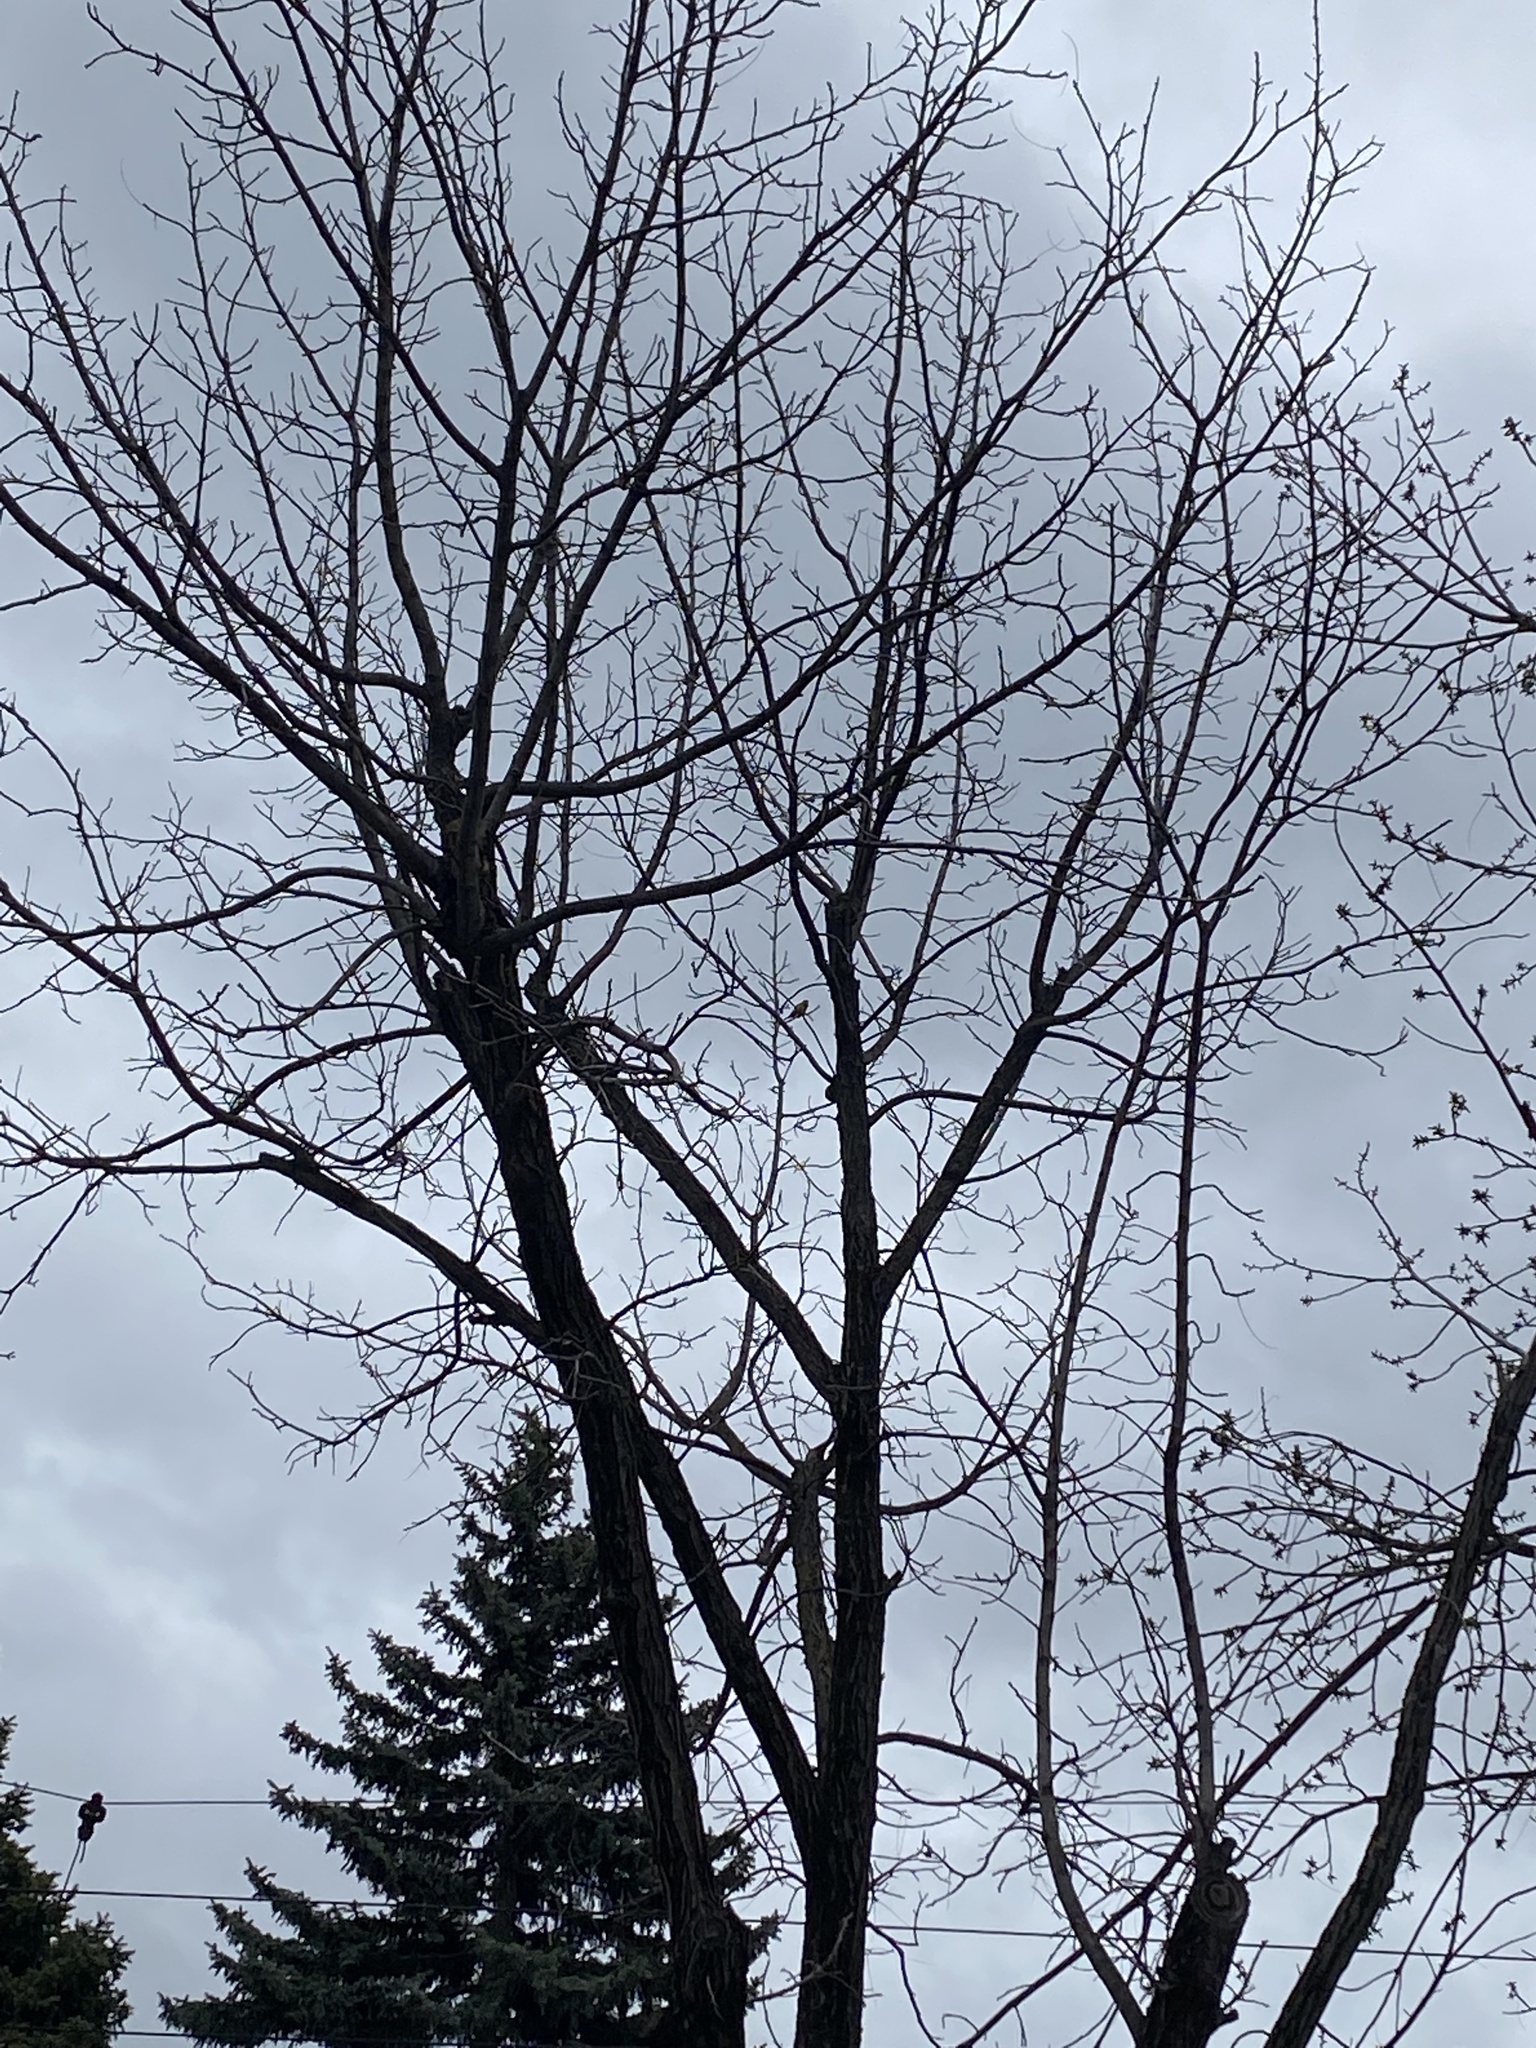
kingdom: Plantae
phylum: Tracheophyta
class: Liliopsida
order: Poales
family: Poaceae
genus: Chloris
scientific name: Chloris chloris
